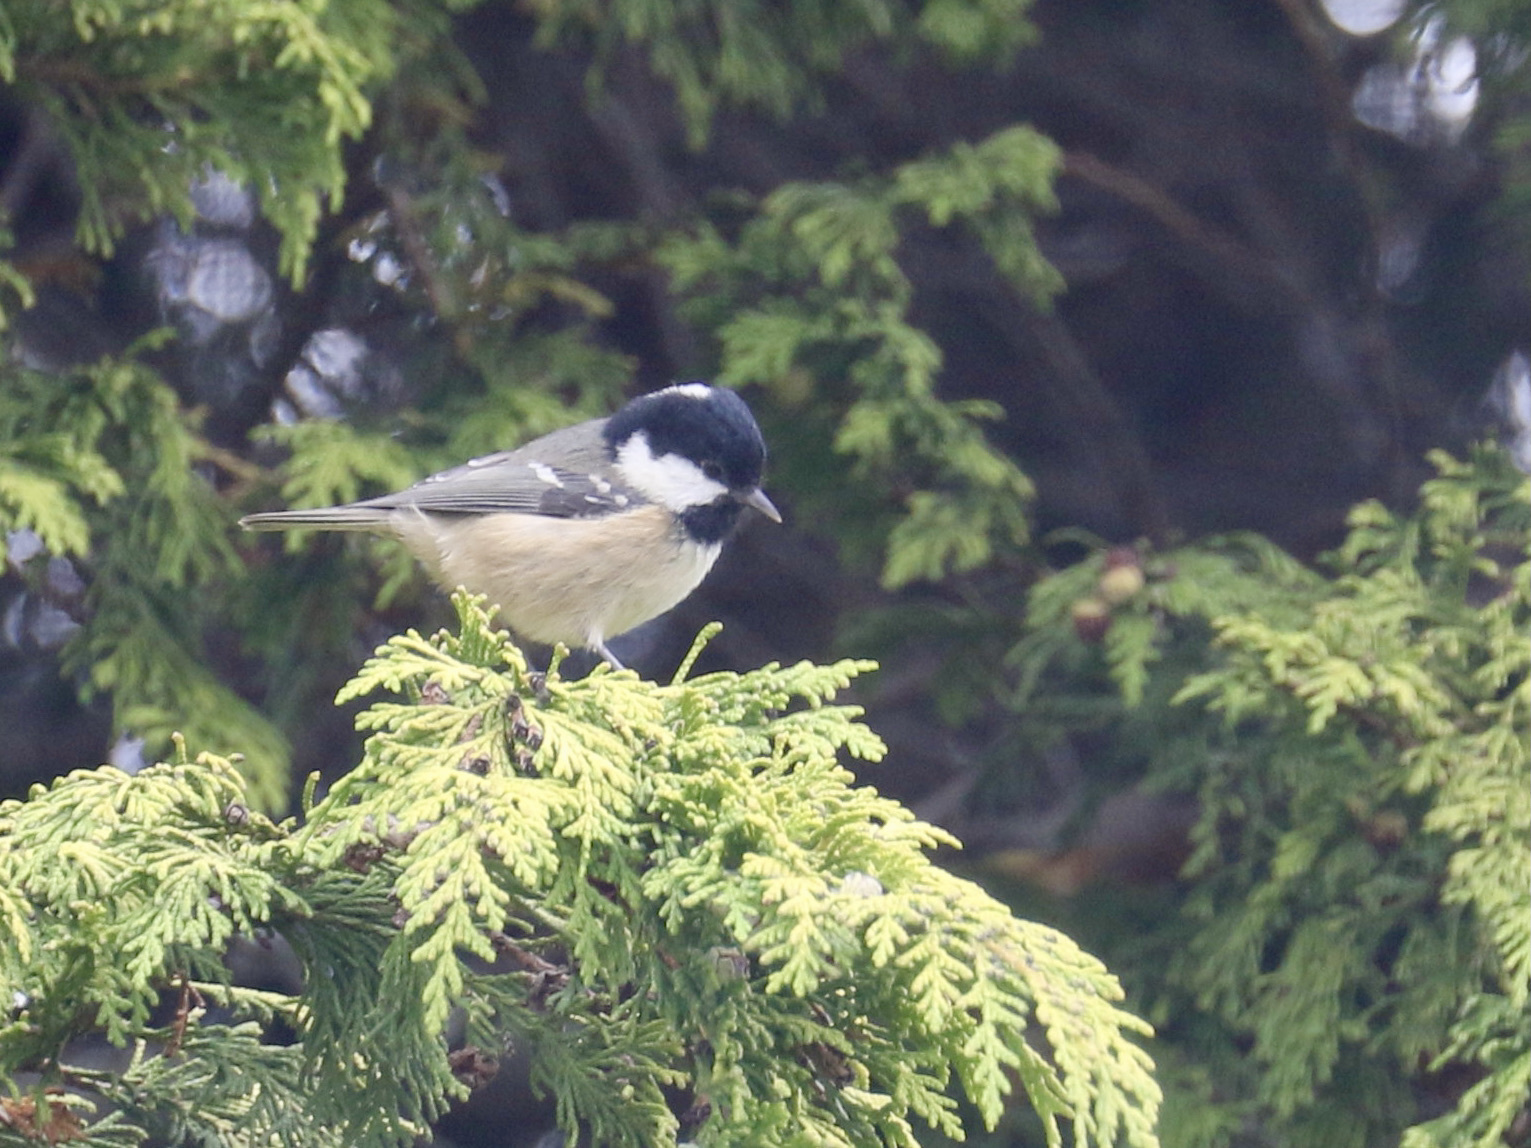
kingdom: Animalia
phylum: Chordata
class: Aves
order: Passeriformes
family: Paridae
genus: Periparus
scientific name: Periparus ater
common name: Coal tit
